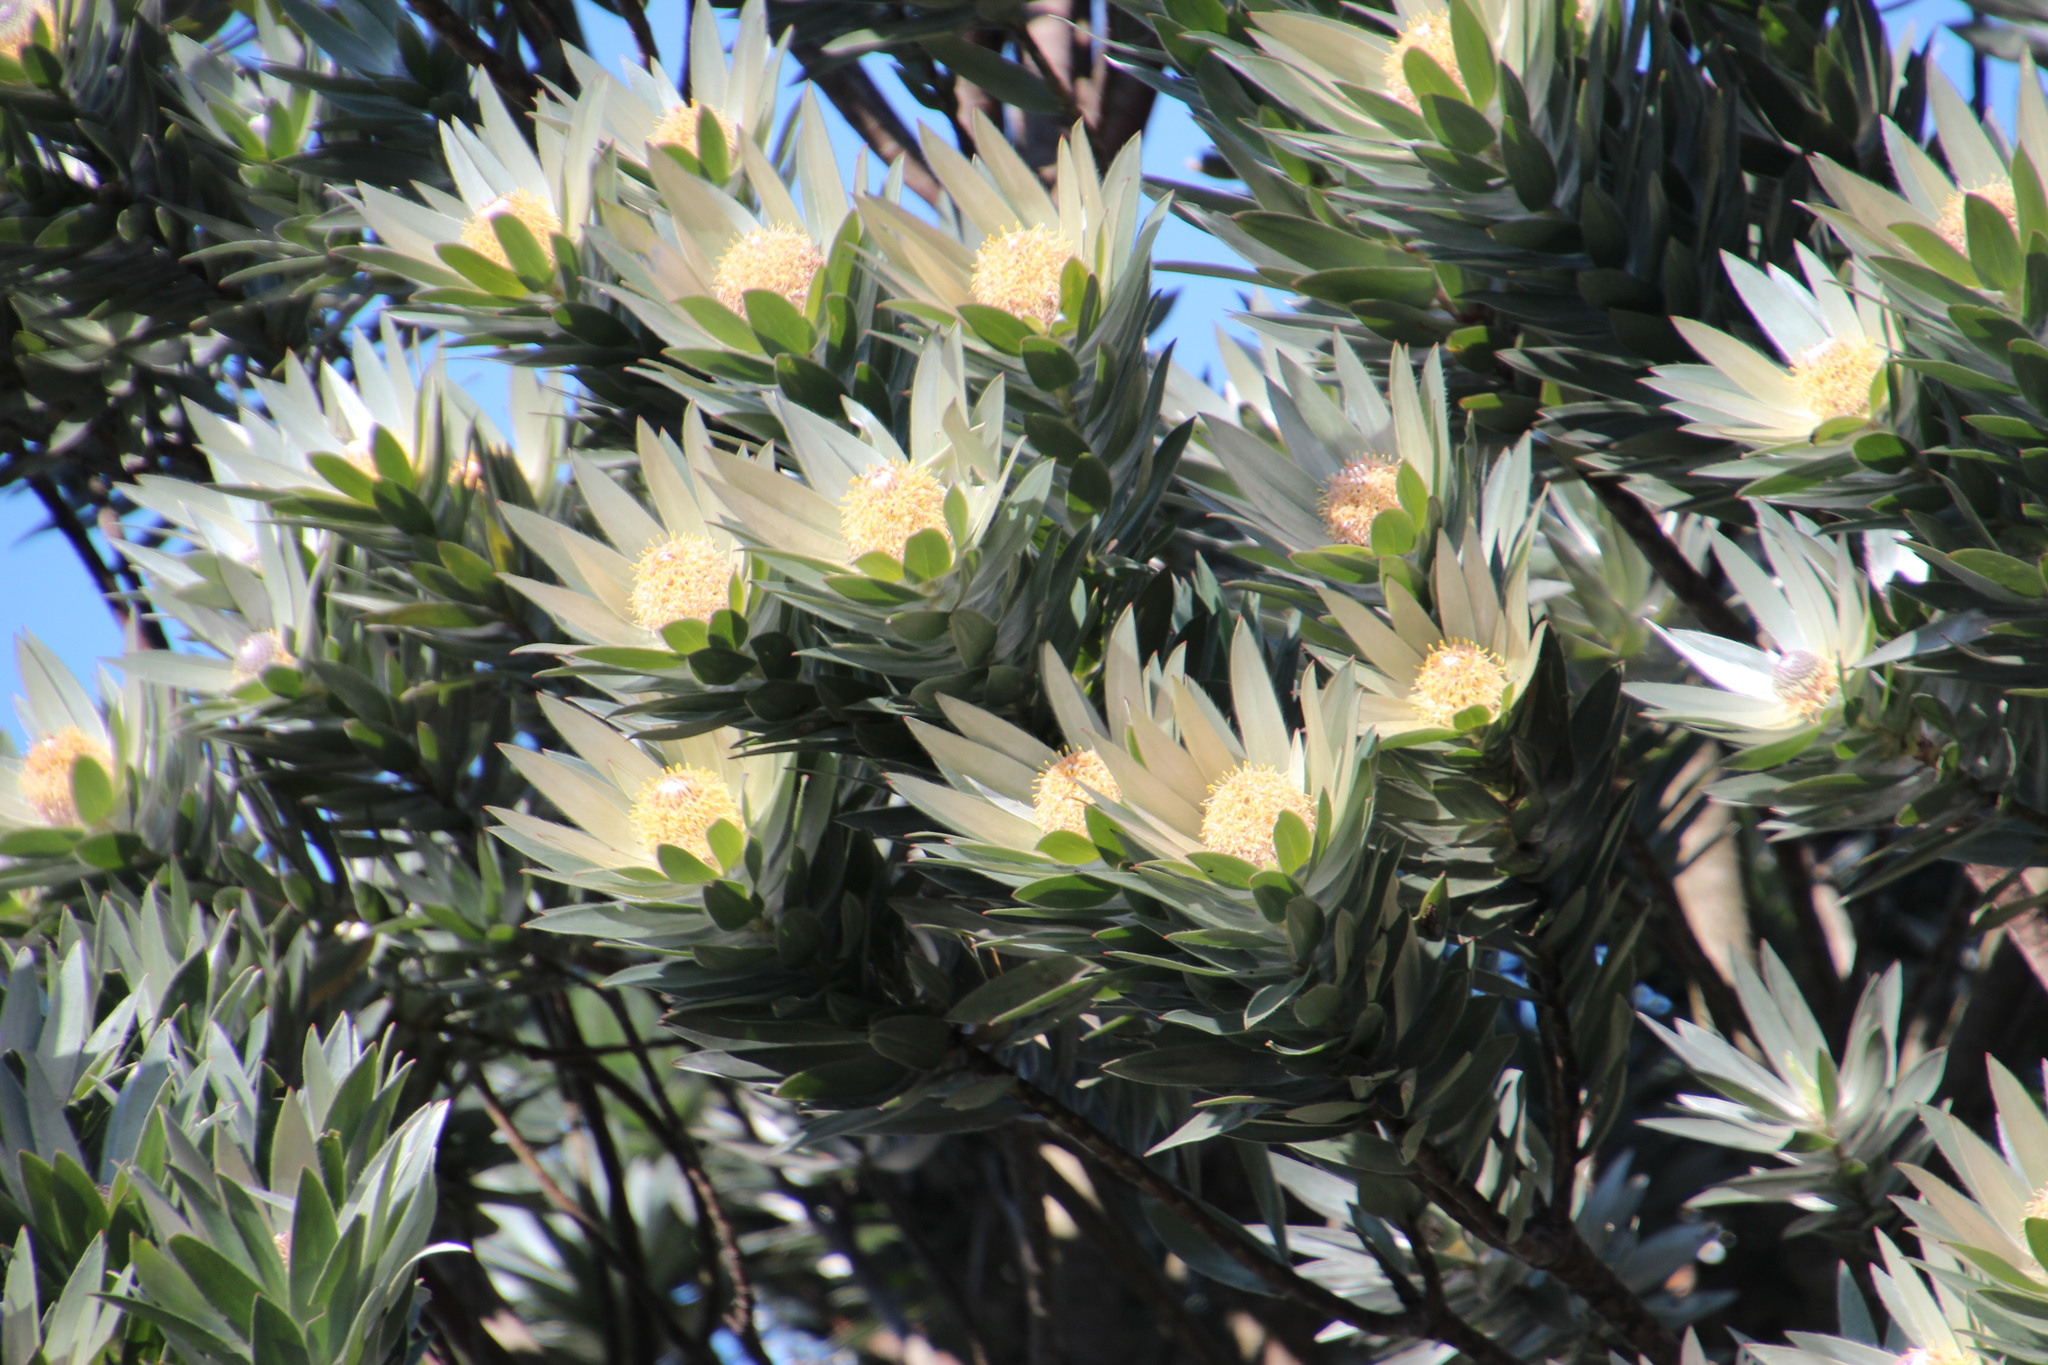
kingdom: Plantae
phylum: Tracheophyta
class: Magnoliopsida
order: Proteales
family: Proteaceae
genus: Leucadendron
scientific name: Leucadendron argenteum
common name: Cape silver tree
